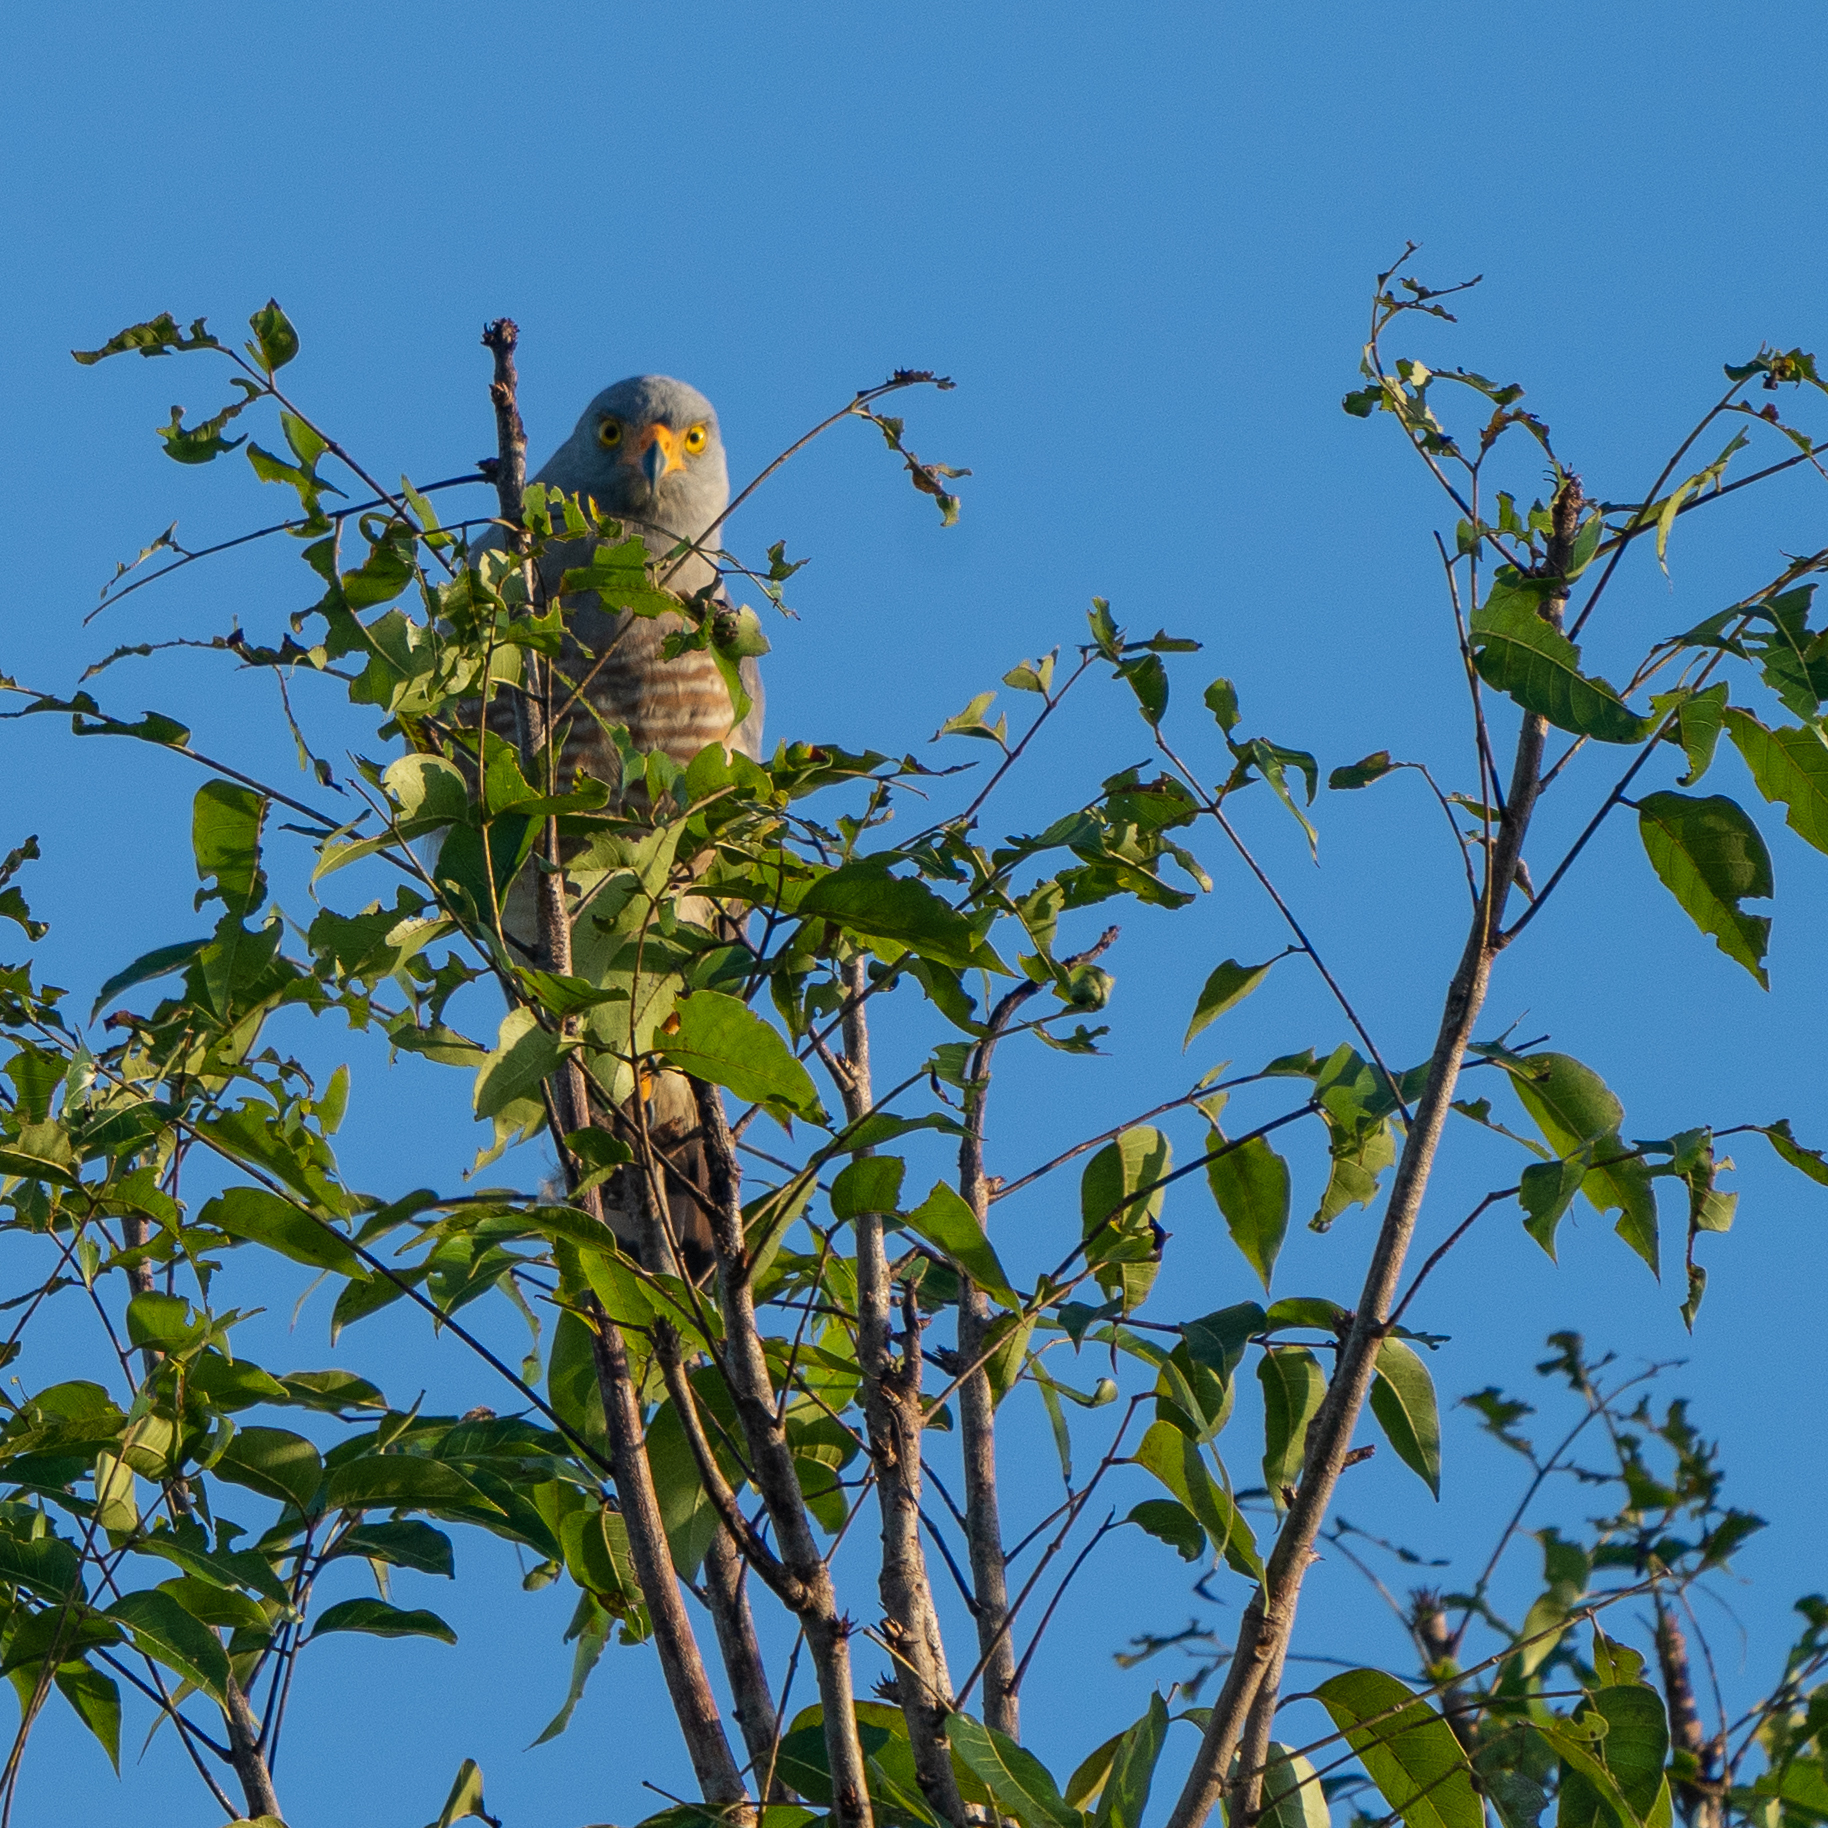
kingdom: Animalia
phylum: Chordata
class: Aves
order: Accipitriformes
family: Accipitridae
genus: Rupornis
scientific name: Rupornis magnirostris
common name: Roadside hawk
